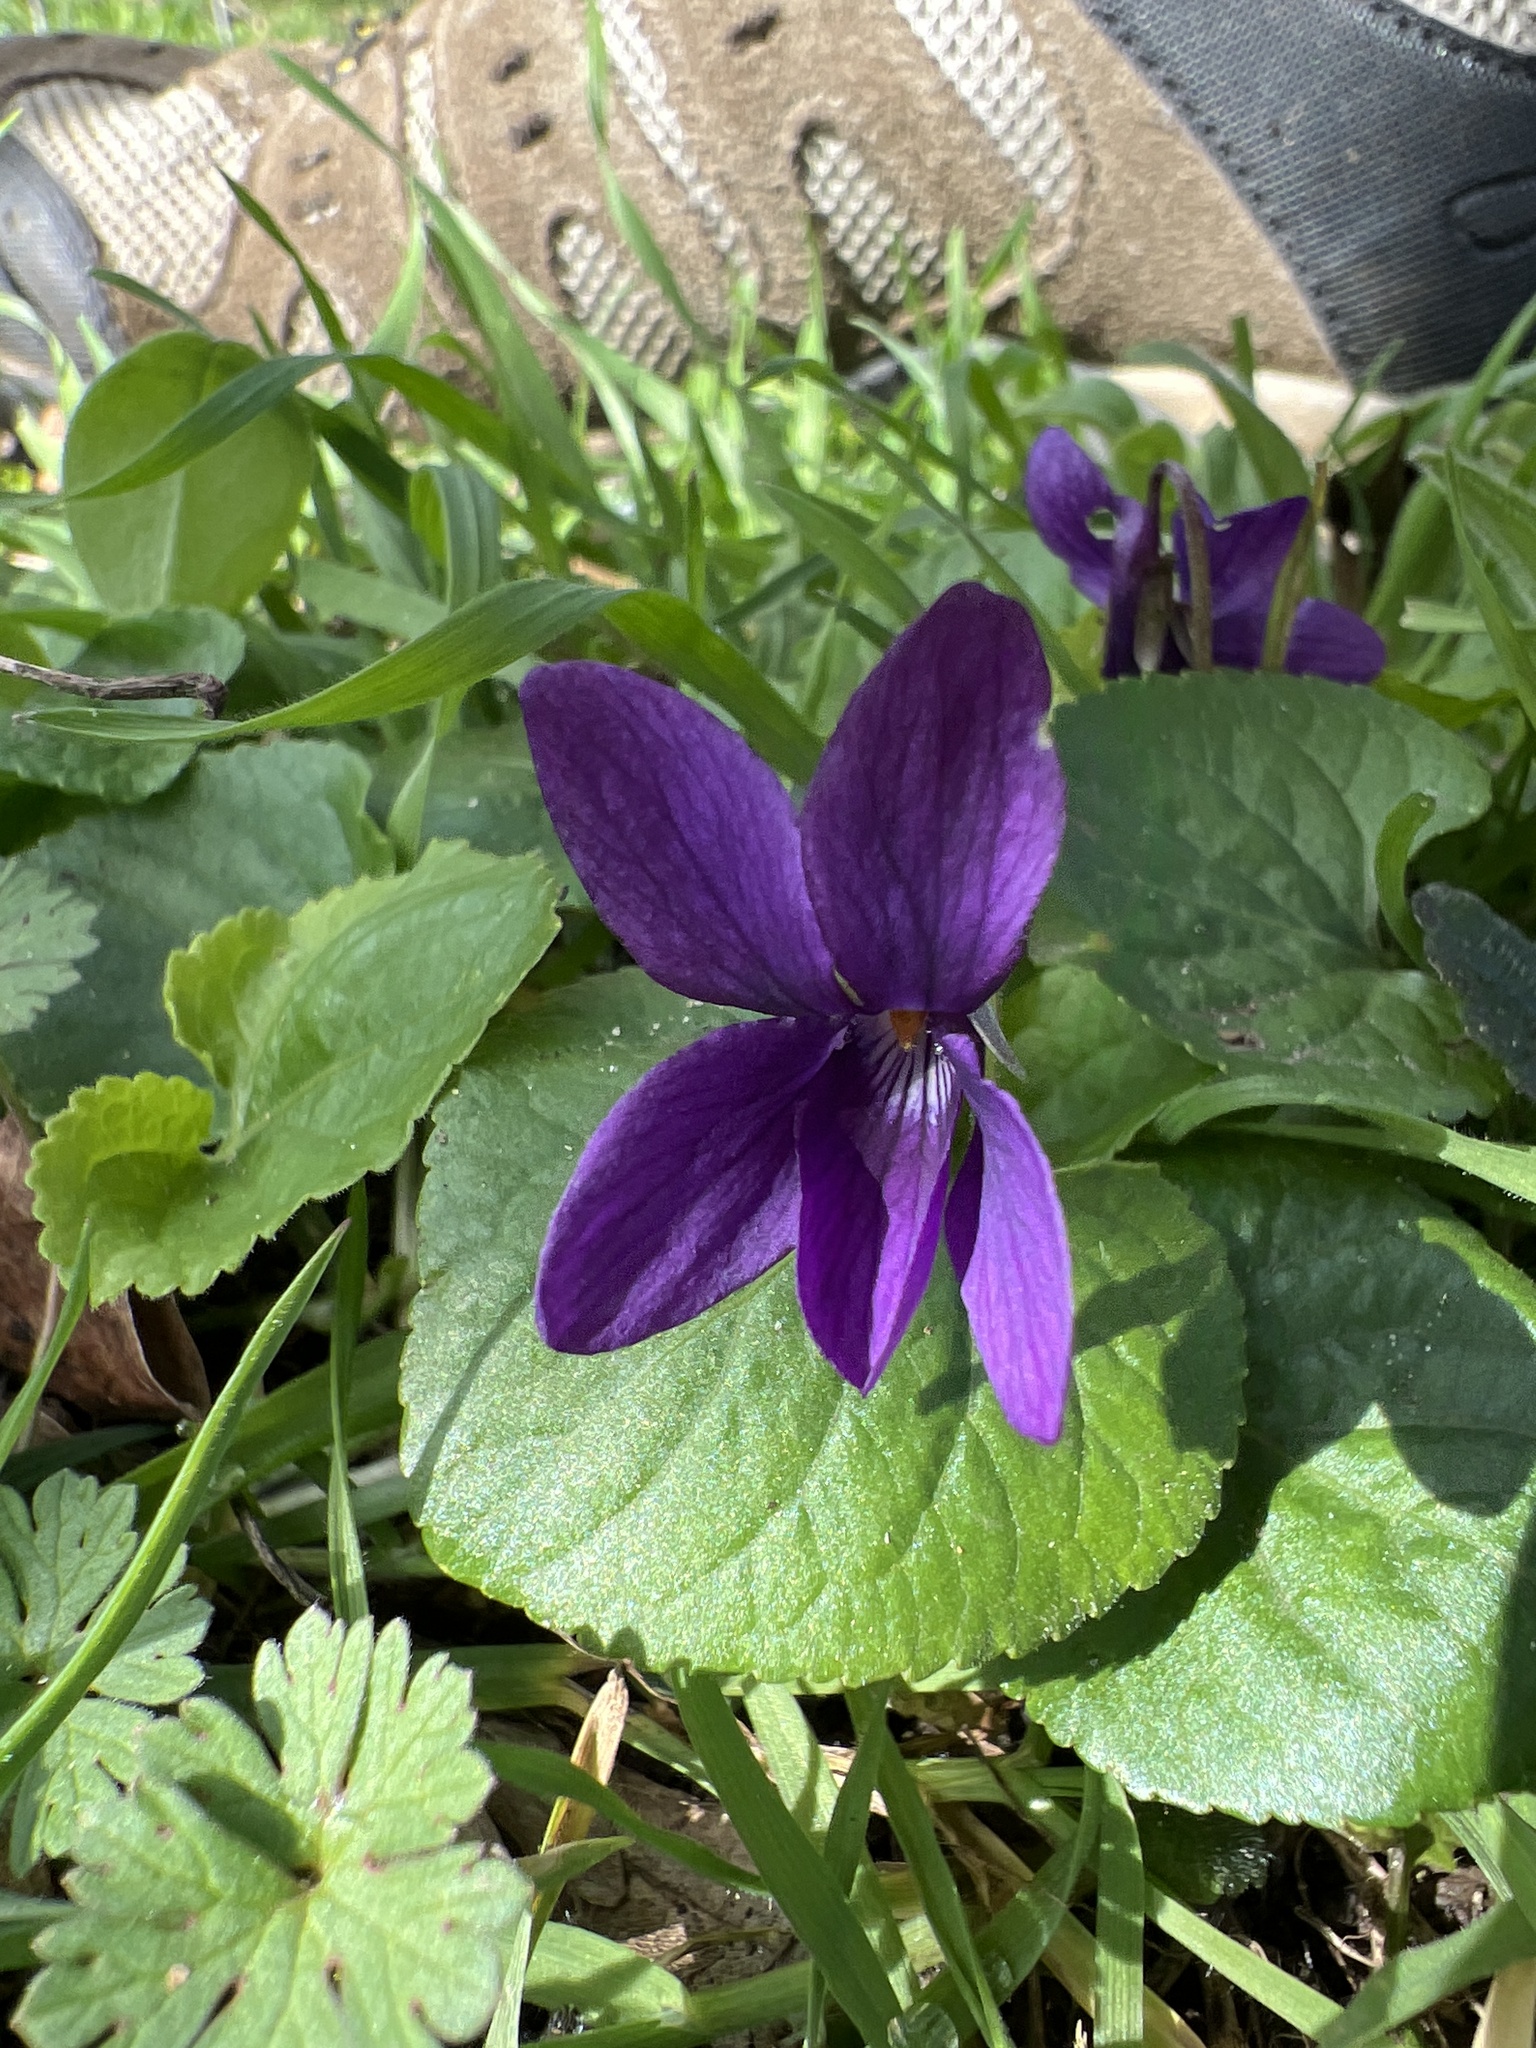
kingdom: Plantae
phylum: Tracheophyta
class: Magnoliopsida
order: Malpighiales
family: Violaceae
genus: Viola
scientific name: Viola odorata
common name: Sweet violet
